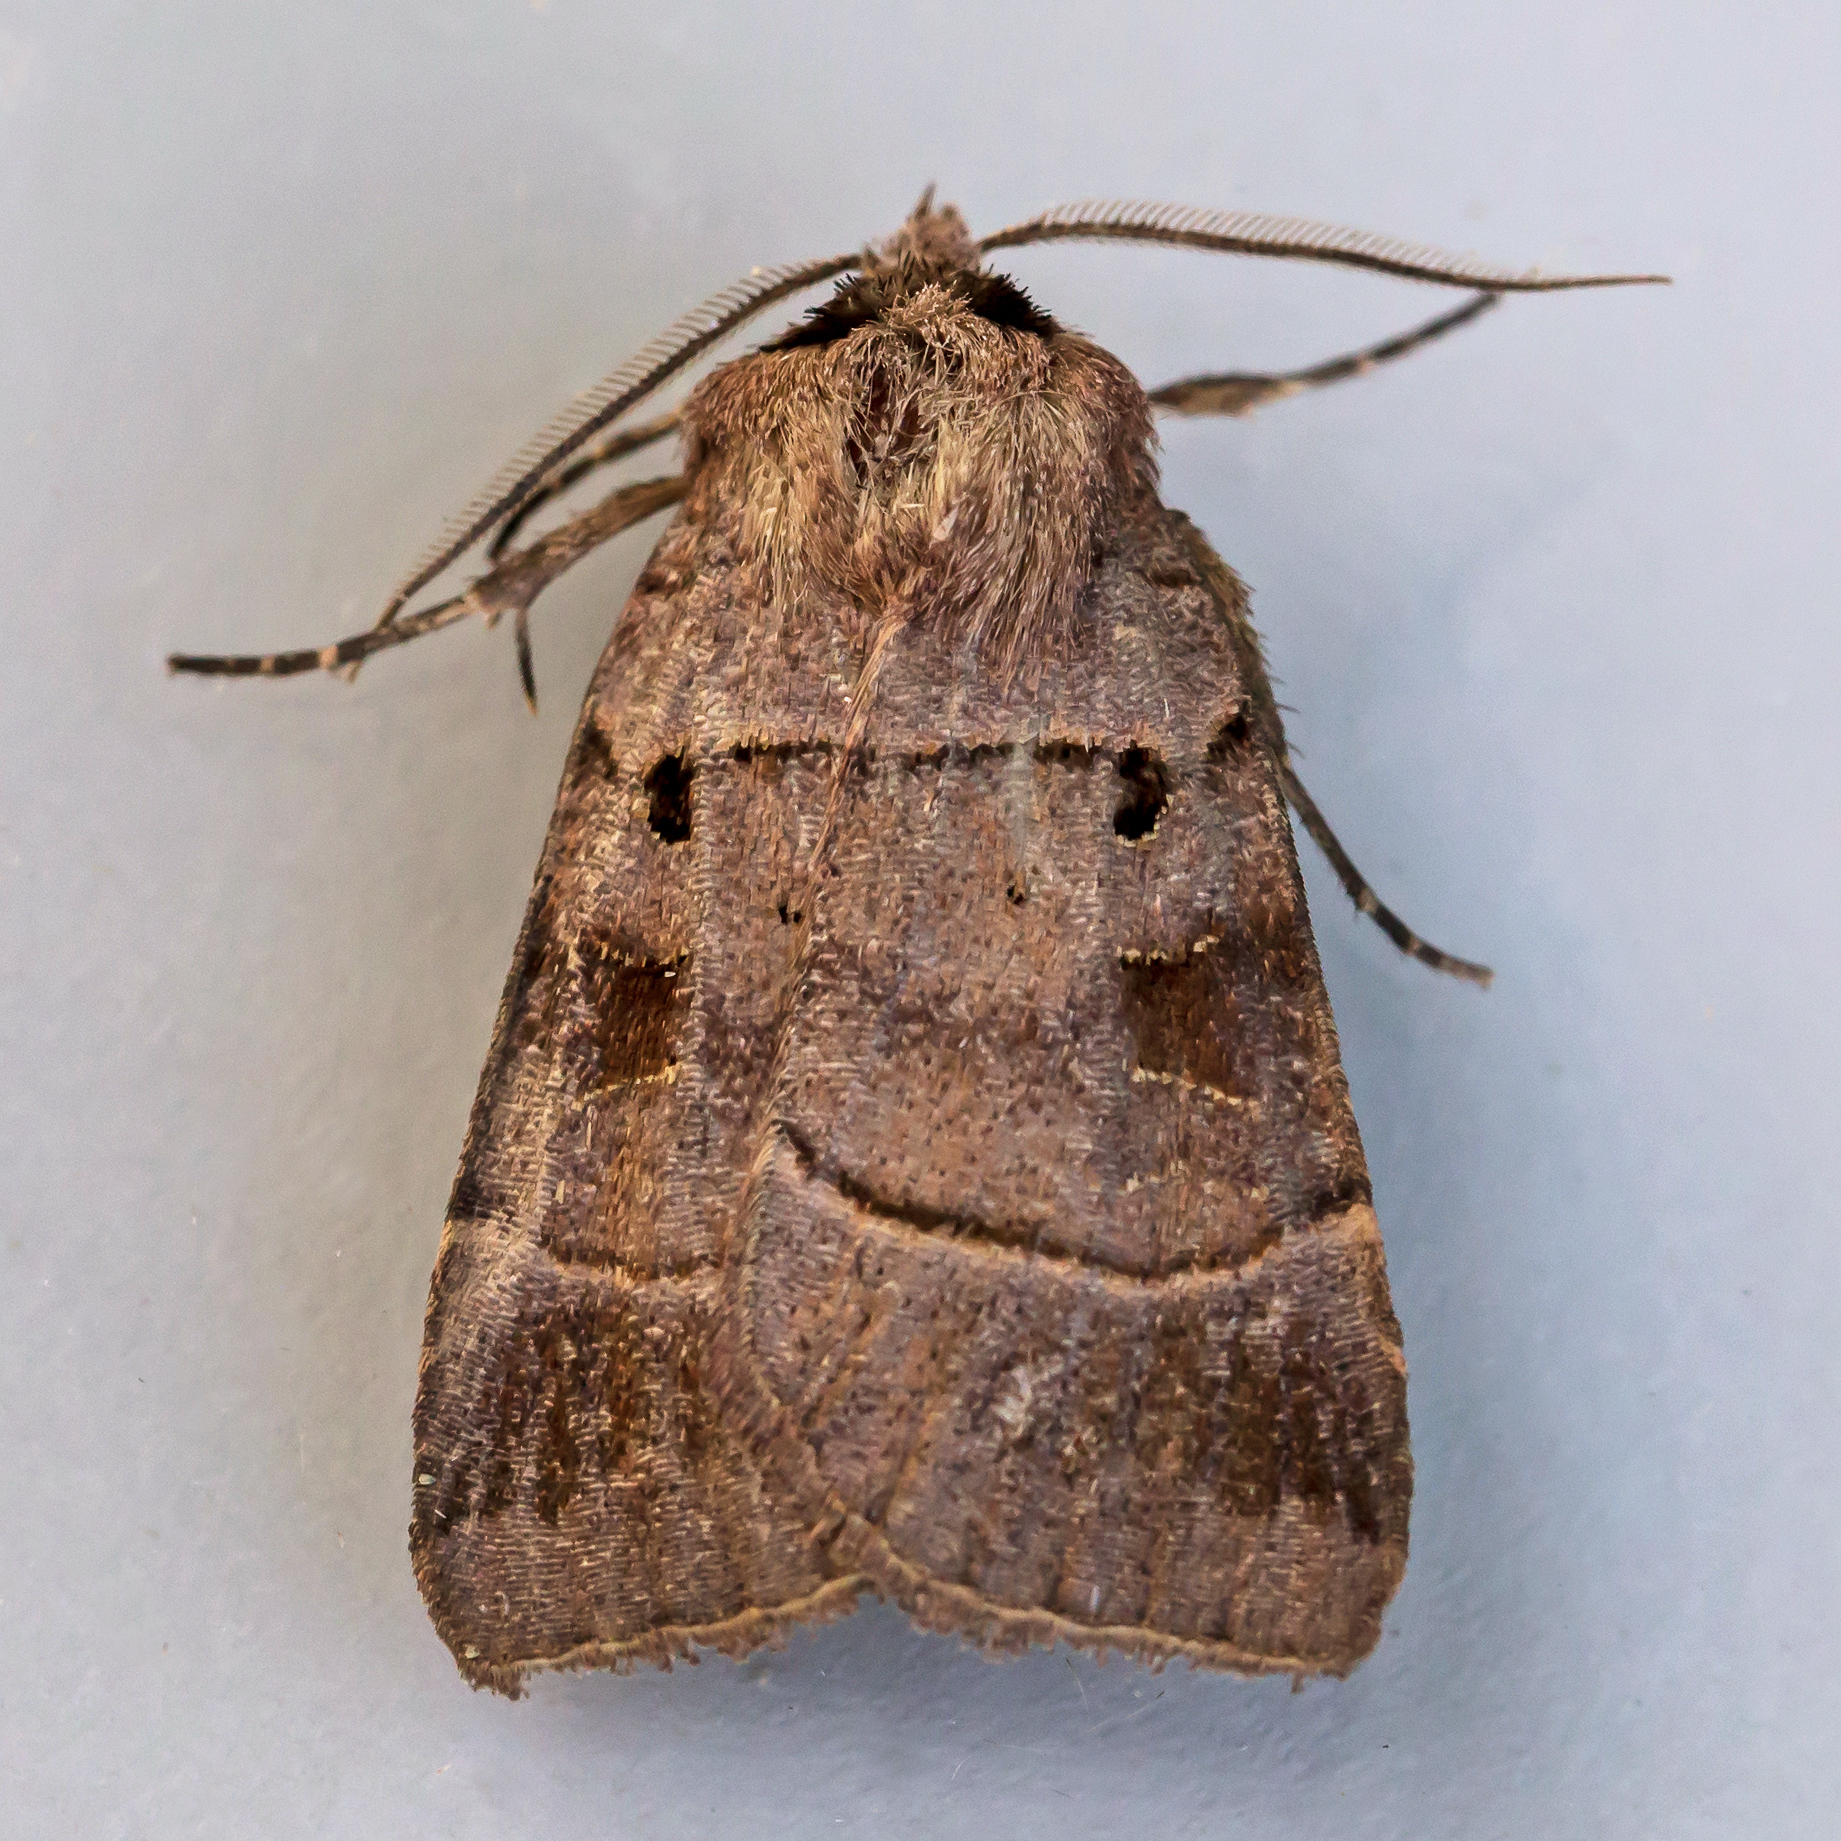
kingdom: Animalia
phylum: Arthropoda
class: Insecta
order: Lepidoptera
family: Noctuidae
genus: Agnorisma
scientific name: Agnorisma badinodis
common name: Pale-banded dart
